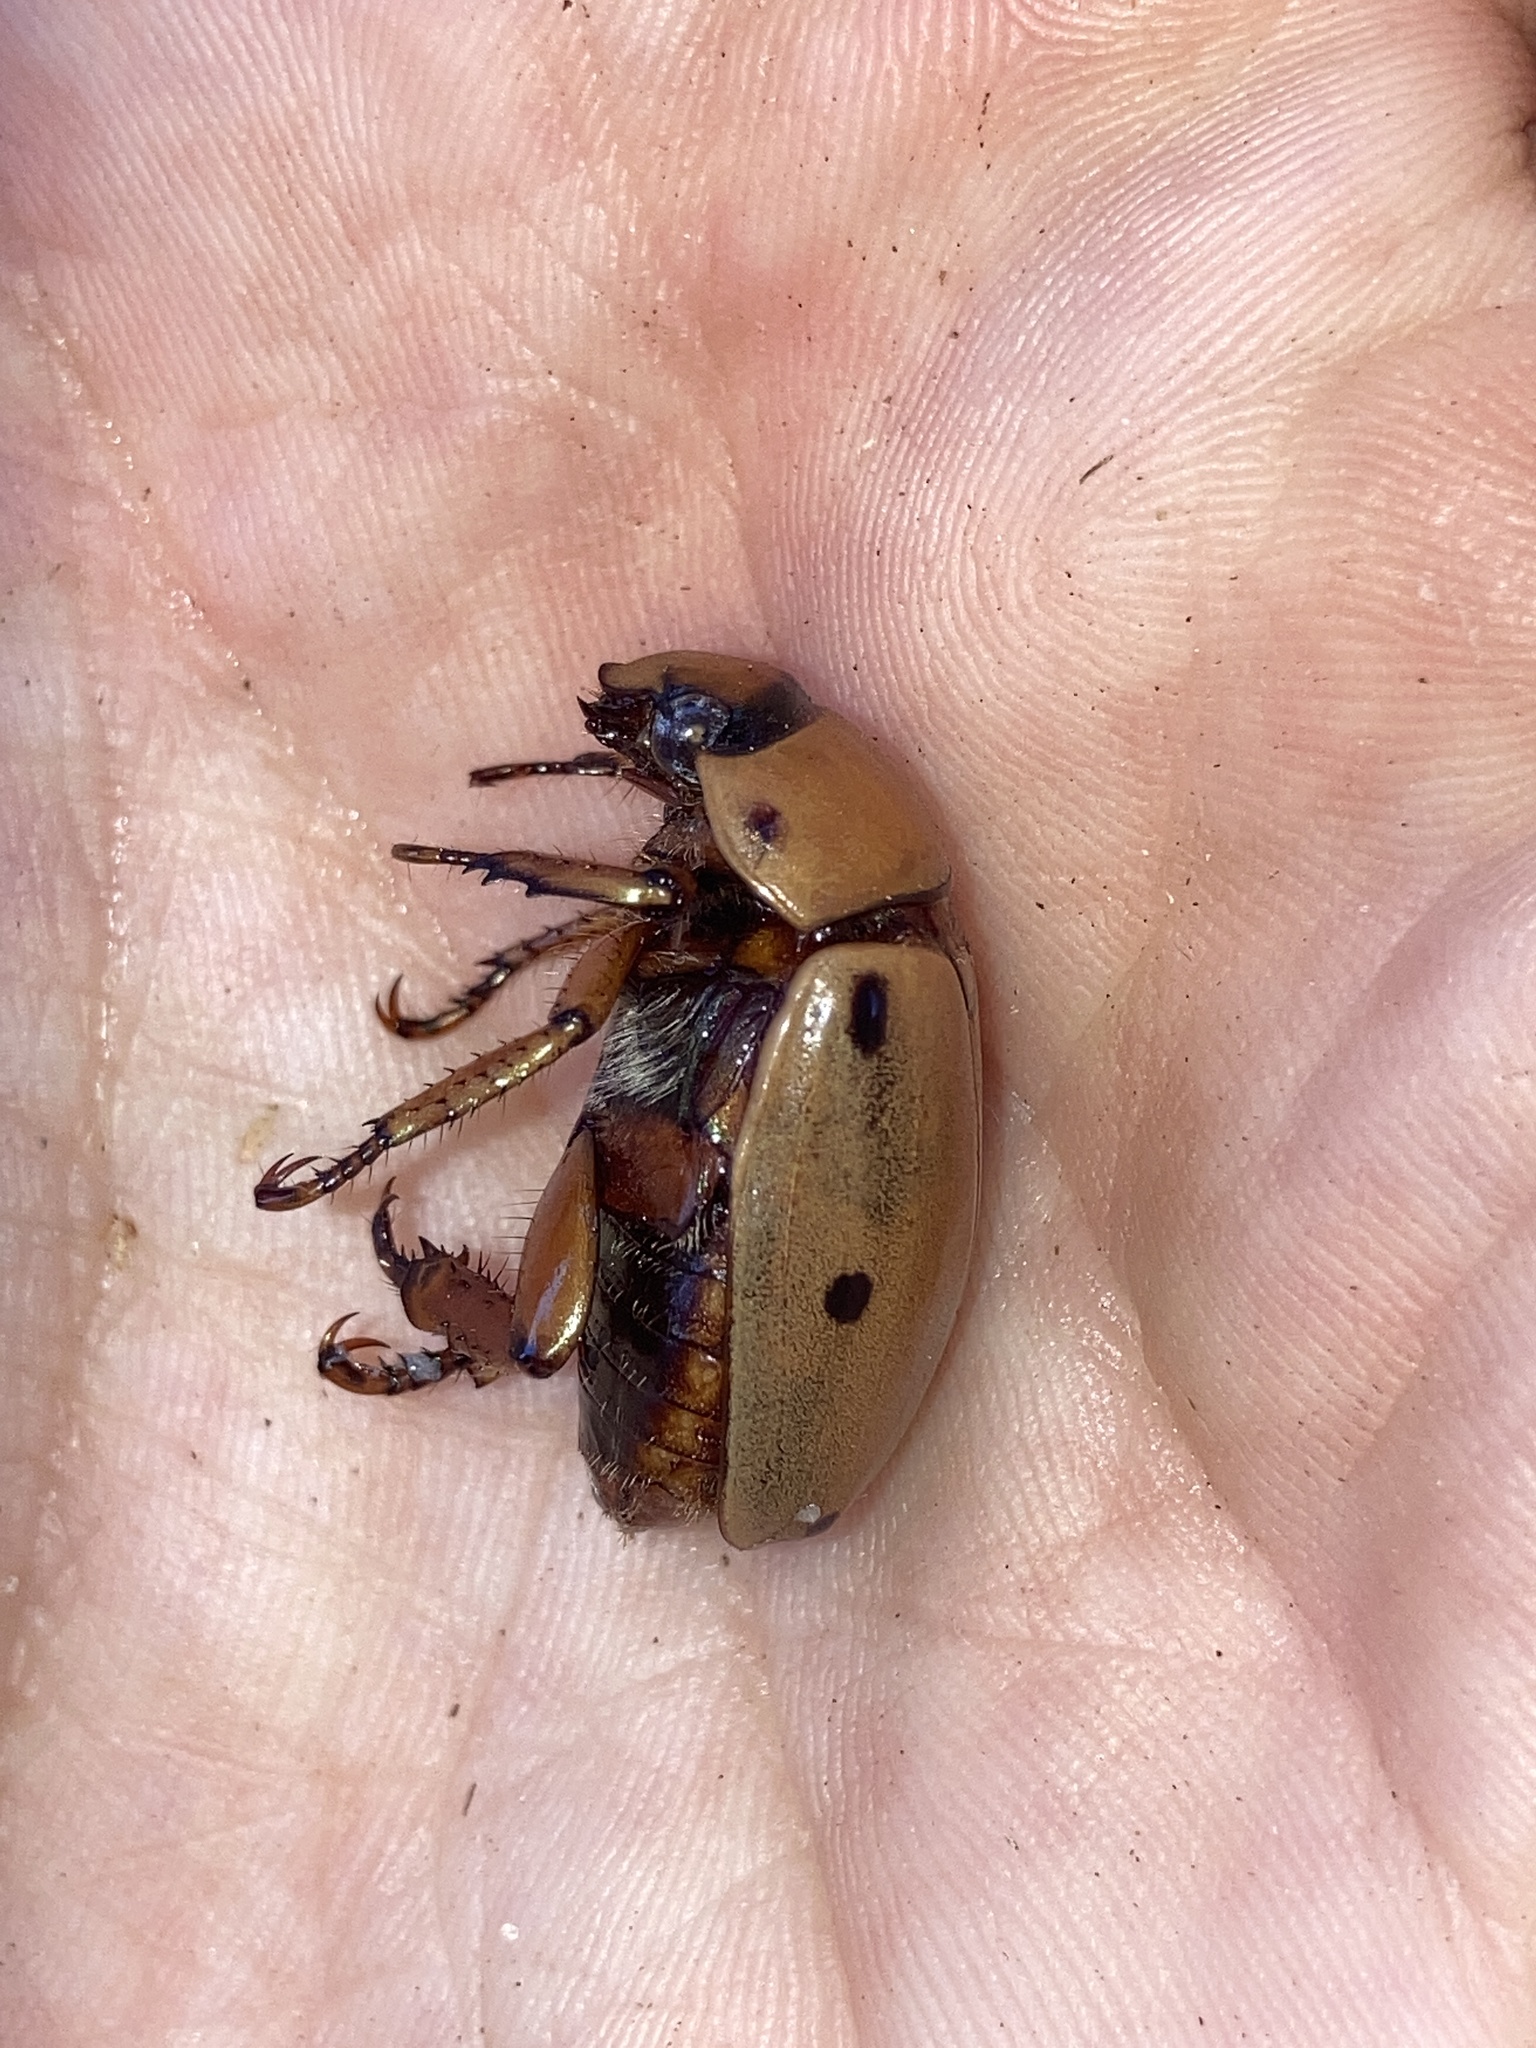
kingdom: Animalia
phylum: Arthropoda
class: Insecta
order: Coleoptera
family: Scarabaeidae
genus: Pelidnota
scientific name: Pelidnota punctata
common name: Grapevine beetle
